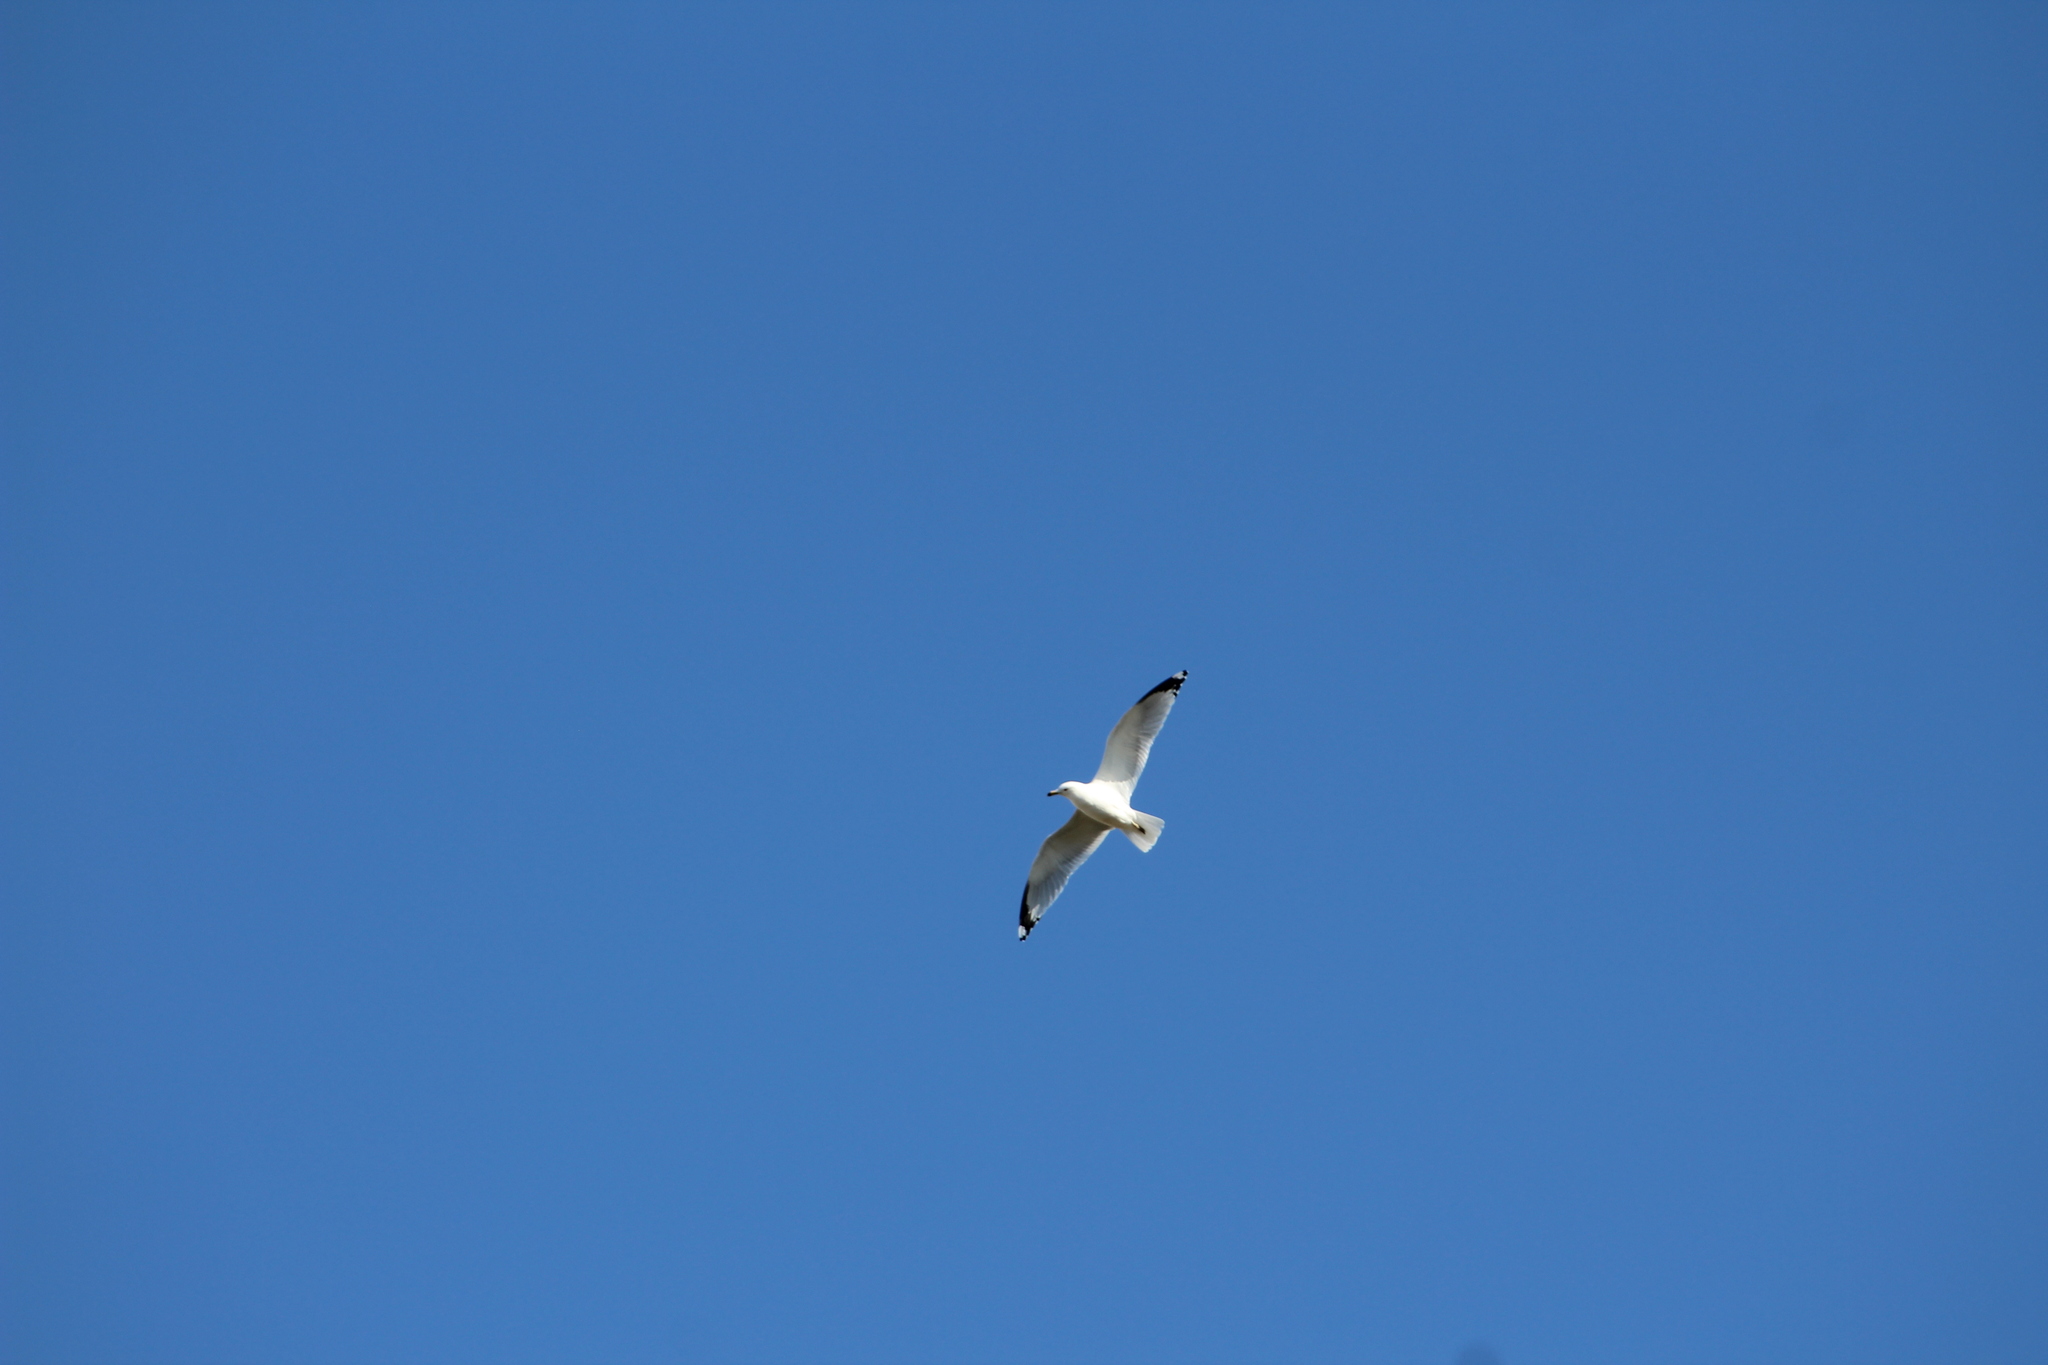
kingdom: Animalia
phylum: Chordata
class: Aves
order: Charadriiformes
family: Laridae
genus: Larus
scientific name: Larus delawarensis
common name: Ring-billed gull
